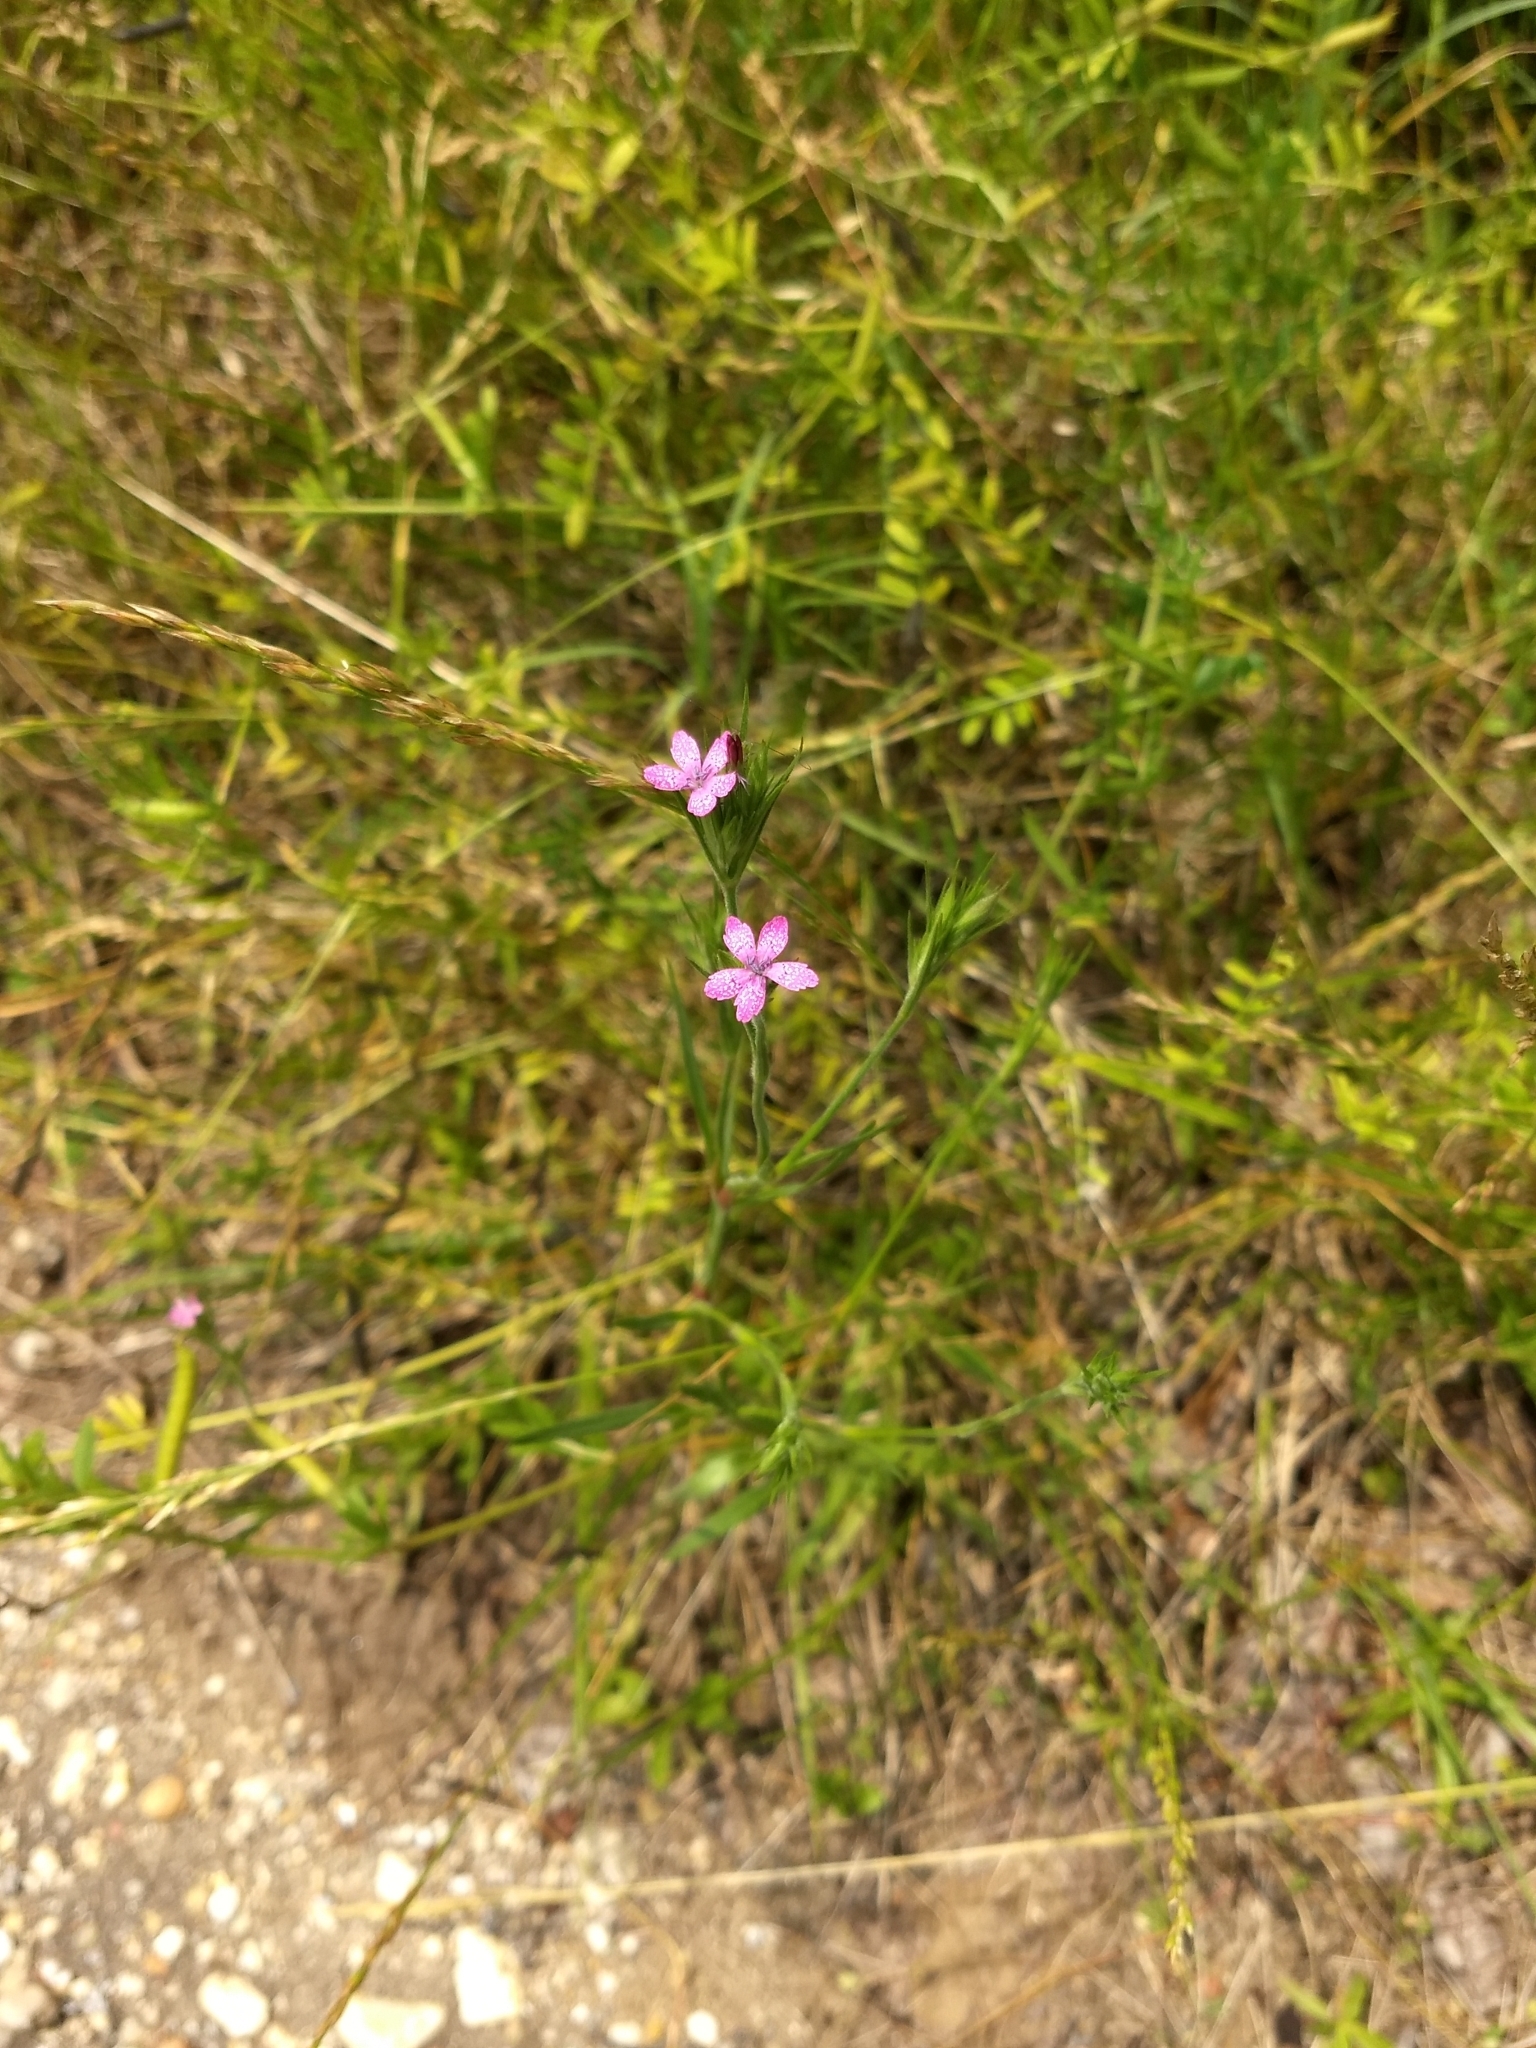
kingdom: Plantae
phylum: Tracheophyta
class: Magnoliopsida
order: Caryophyllales
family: Caryophyllaceae
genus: Dianthus
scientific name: Dianthus armeria
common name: Deptford pink
